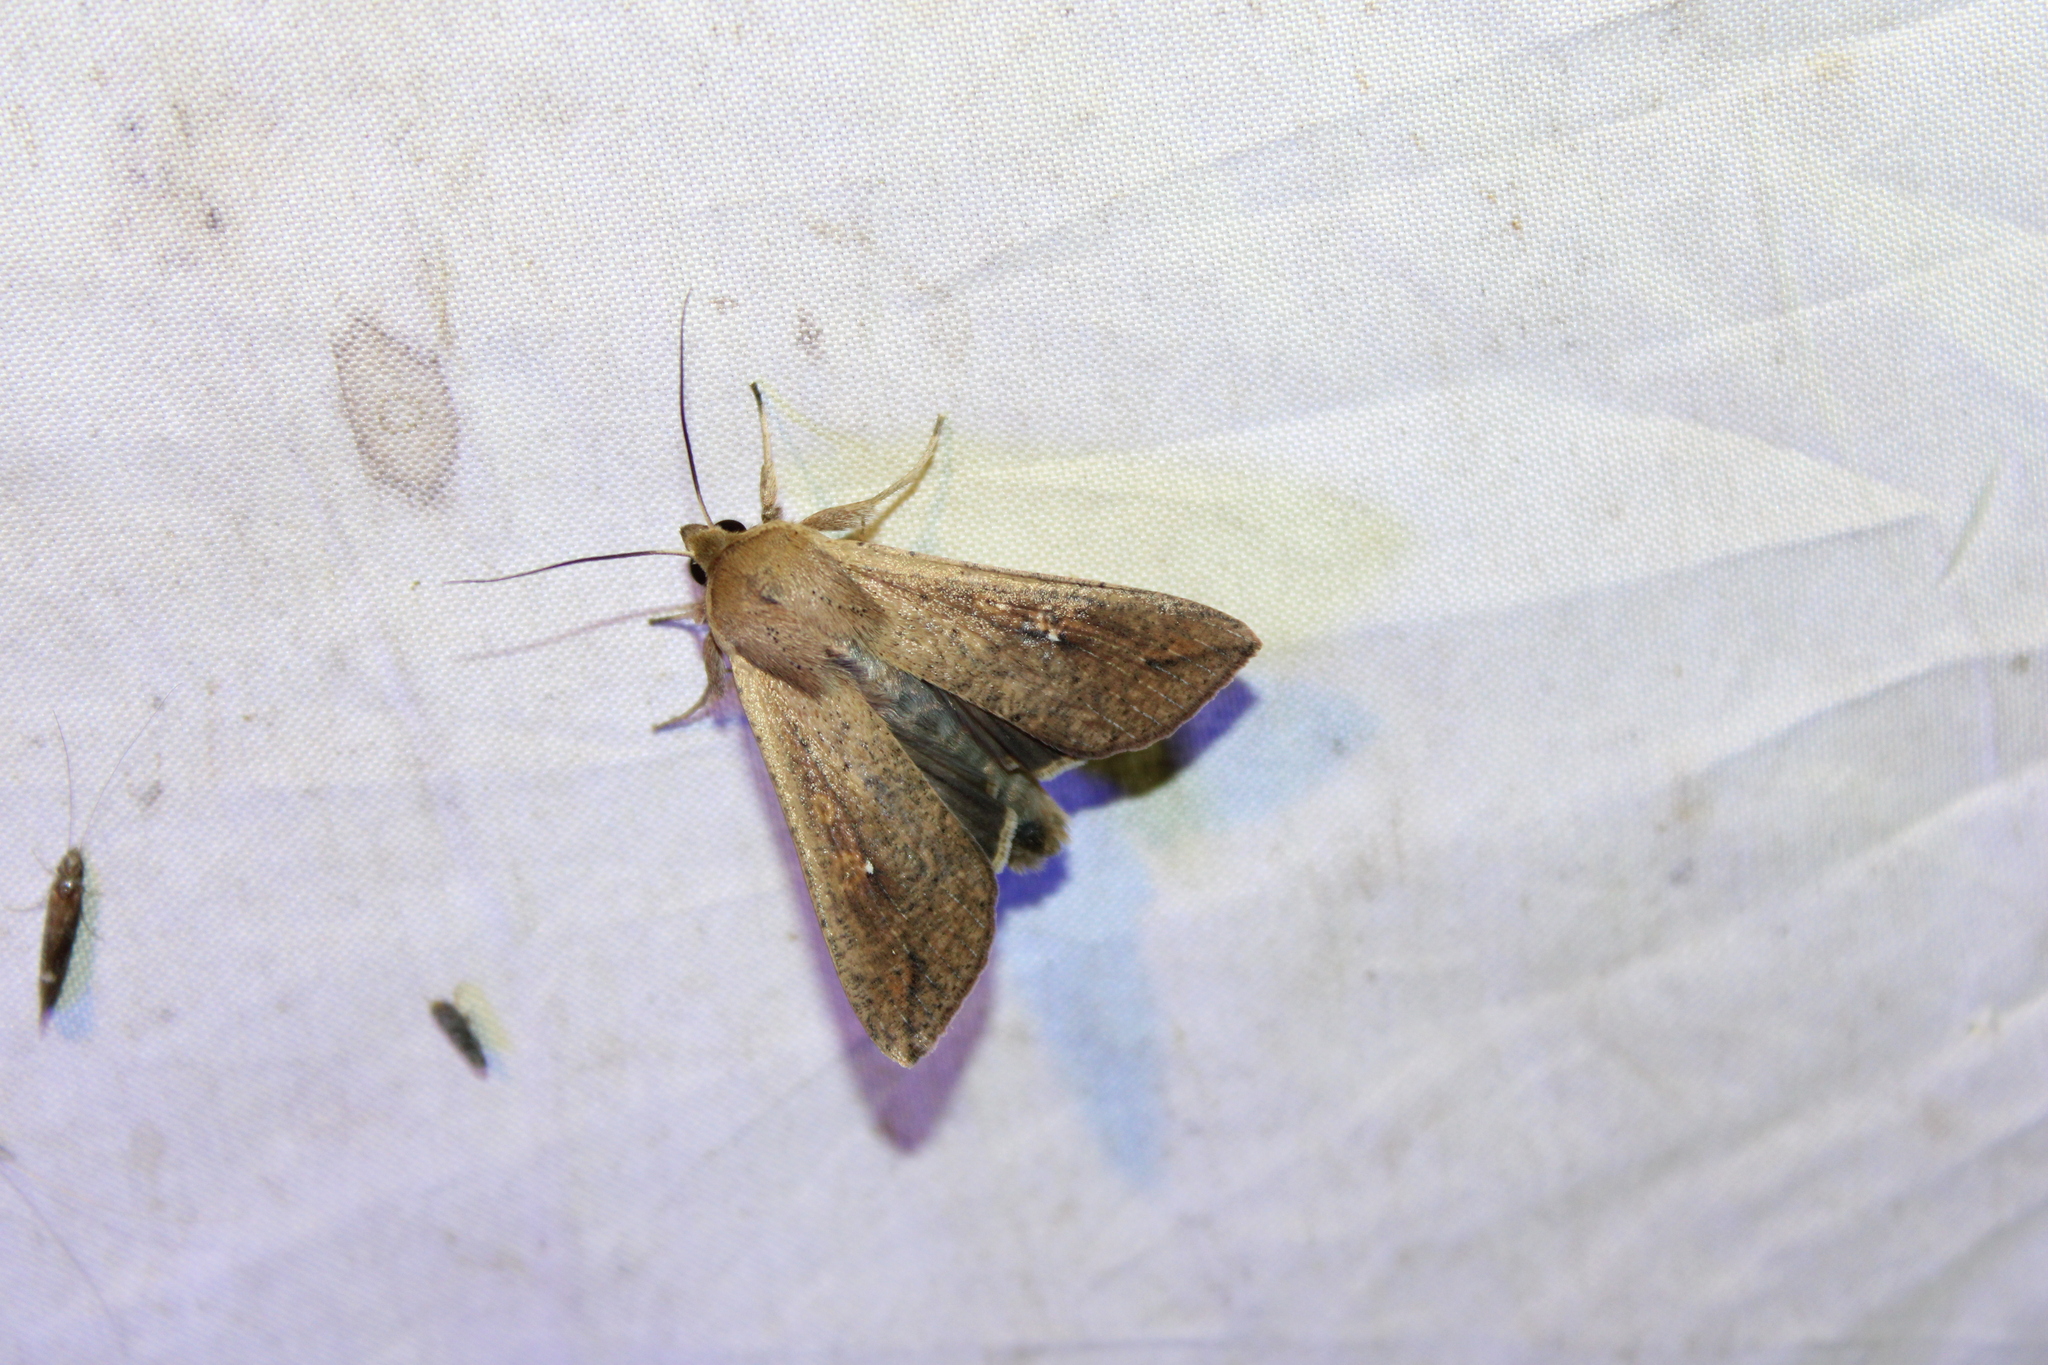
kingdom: Animalia
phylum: Arthropoda
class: Insecta
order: Lepidoptera
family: Noctuidae
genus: Mythimna
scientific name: Mythimna unipuncta
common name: White-speck
